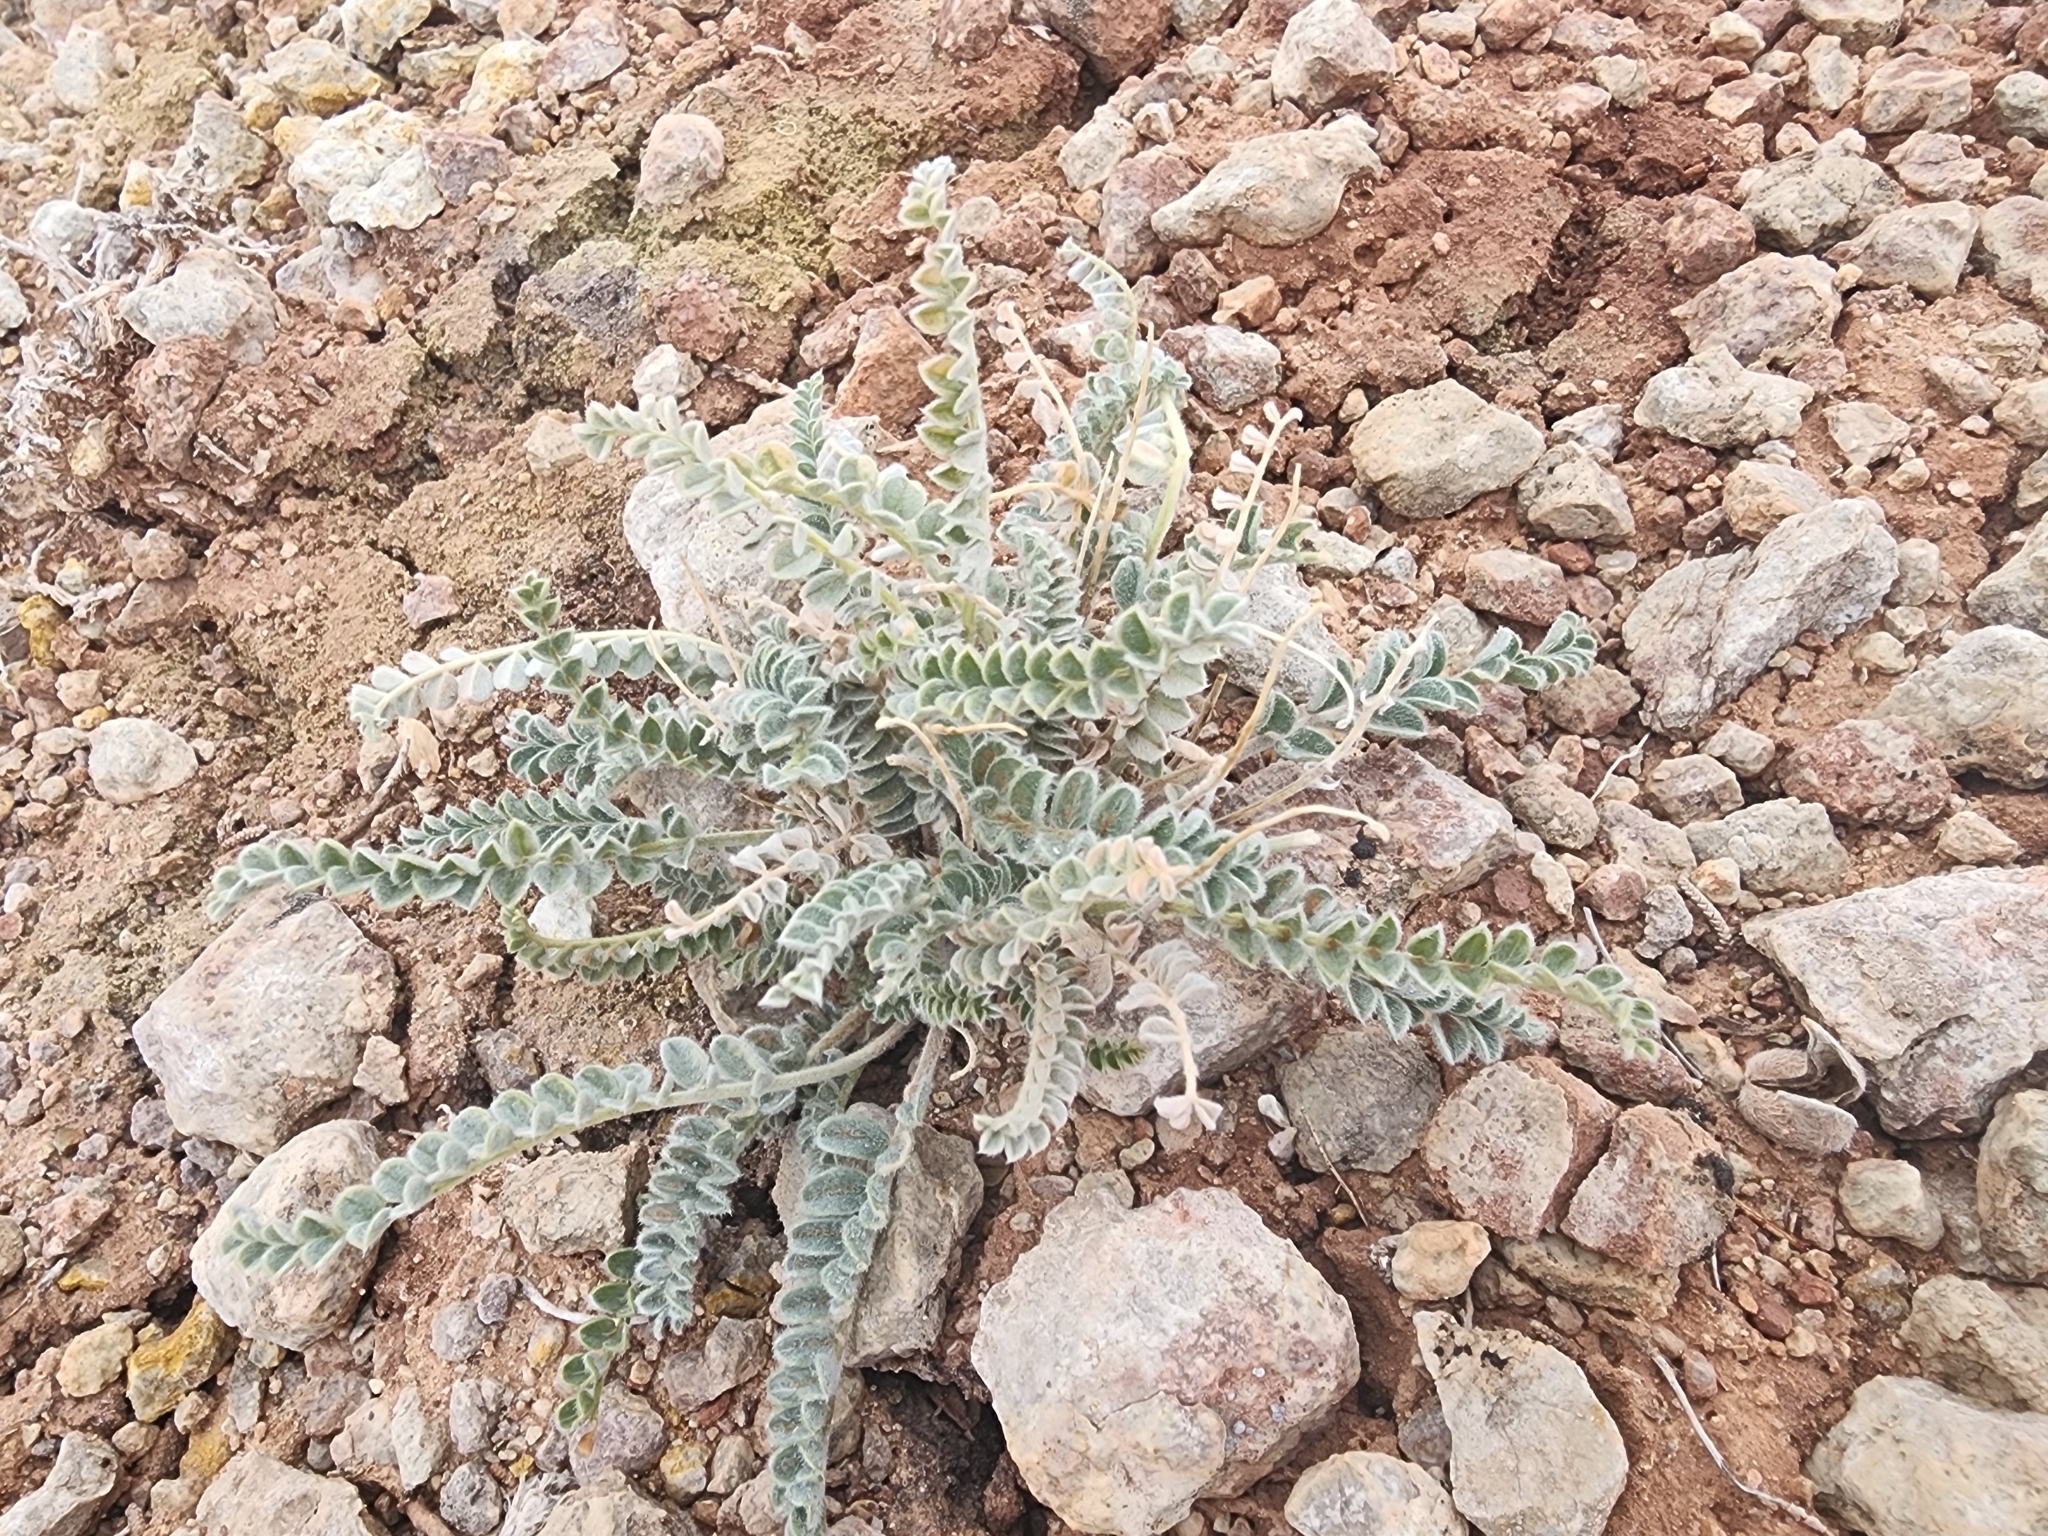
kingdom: Plantae
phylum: Tracheophyta
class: Magnoliopsida
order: Fabales
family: Fabaceae
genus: Astragalus
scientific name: Astragalus mollissimus
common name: Woolly locoweed
